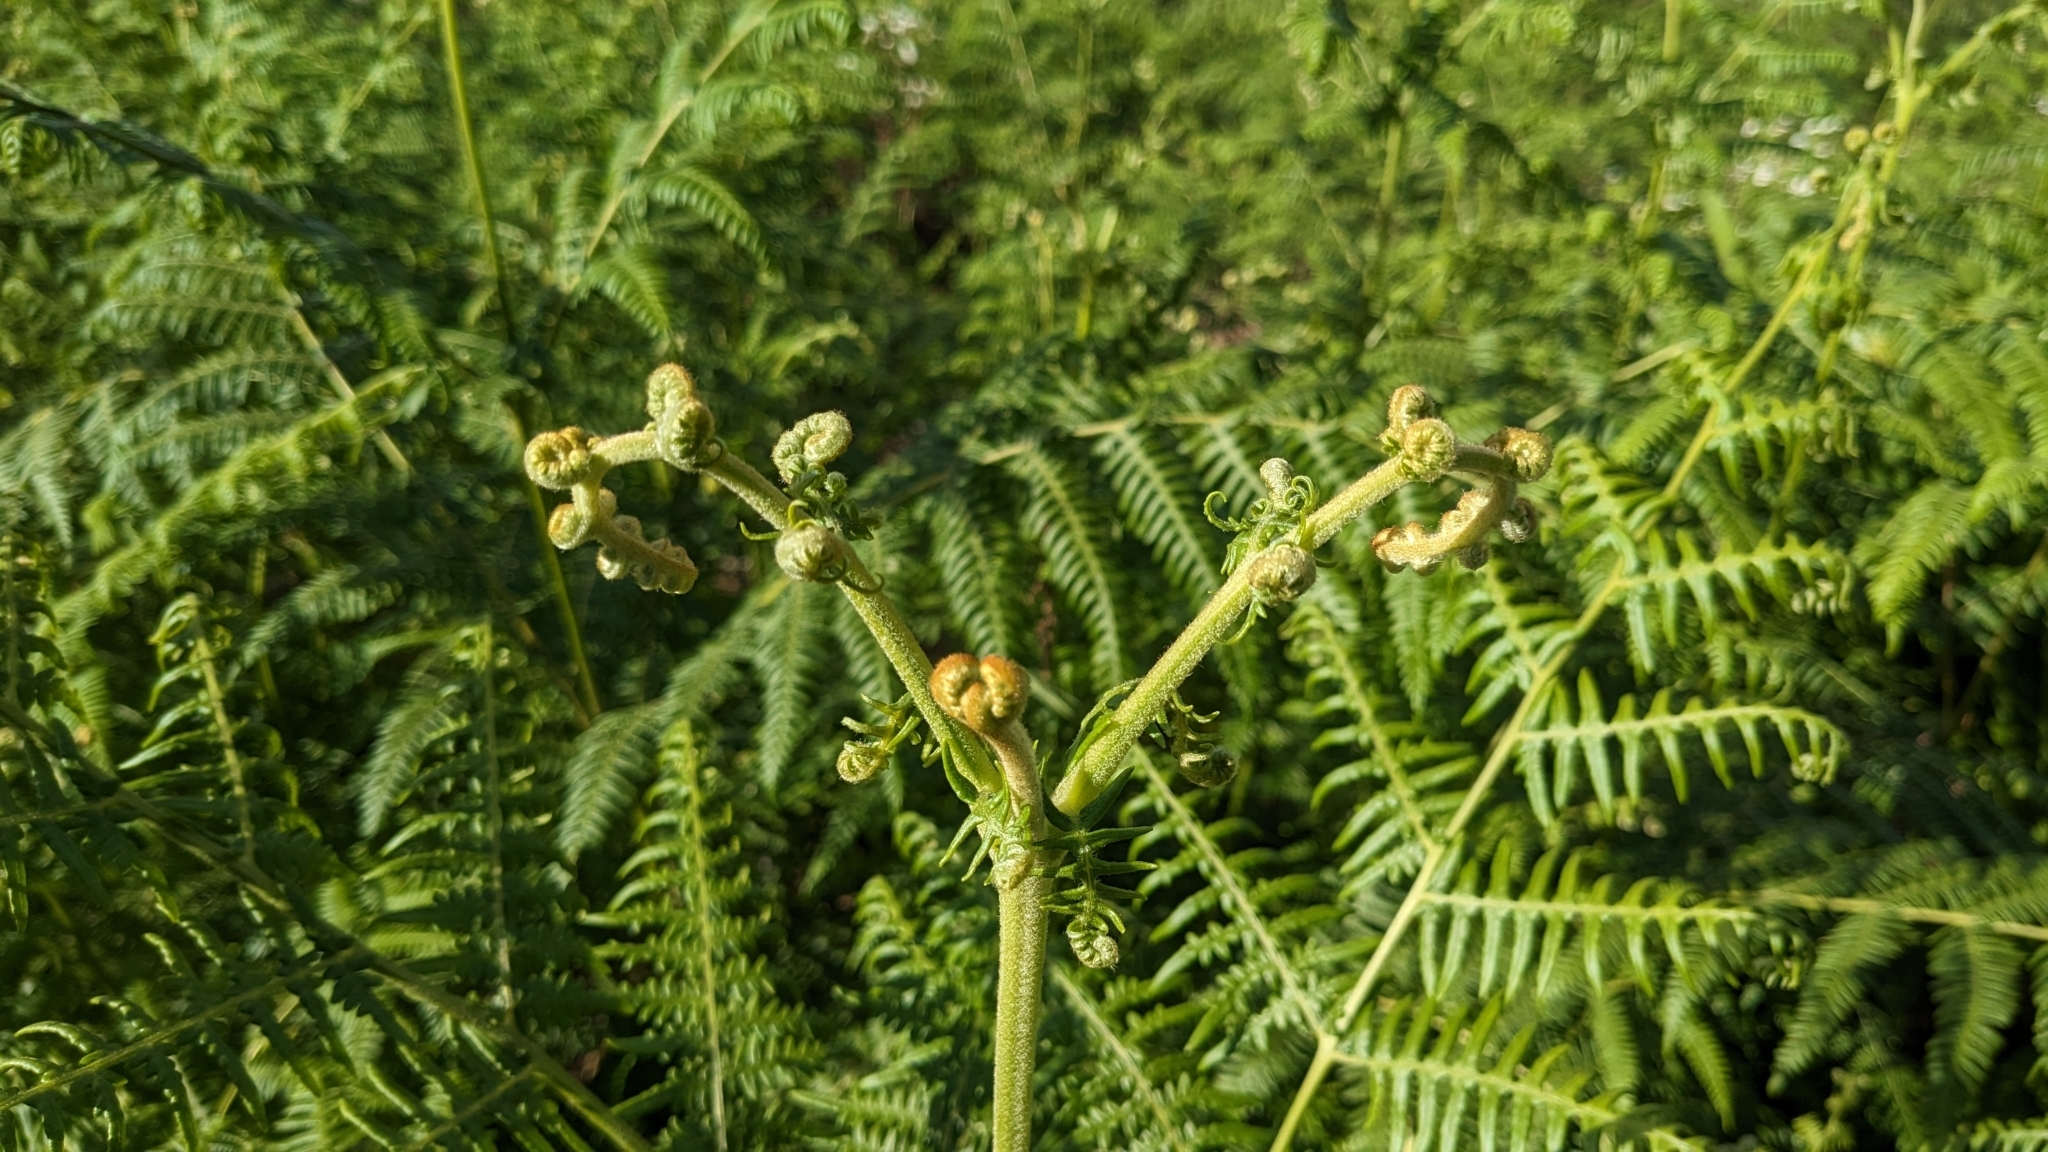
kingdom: Plantae
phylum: Tracheophyta
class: Polypodiopsida
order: Polypodiales
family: Dennstaedtiaceae
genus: Pteridium
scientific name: Pteridium aquilinum
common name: Bracken
